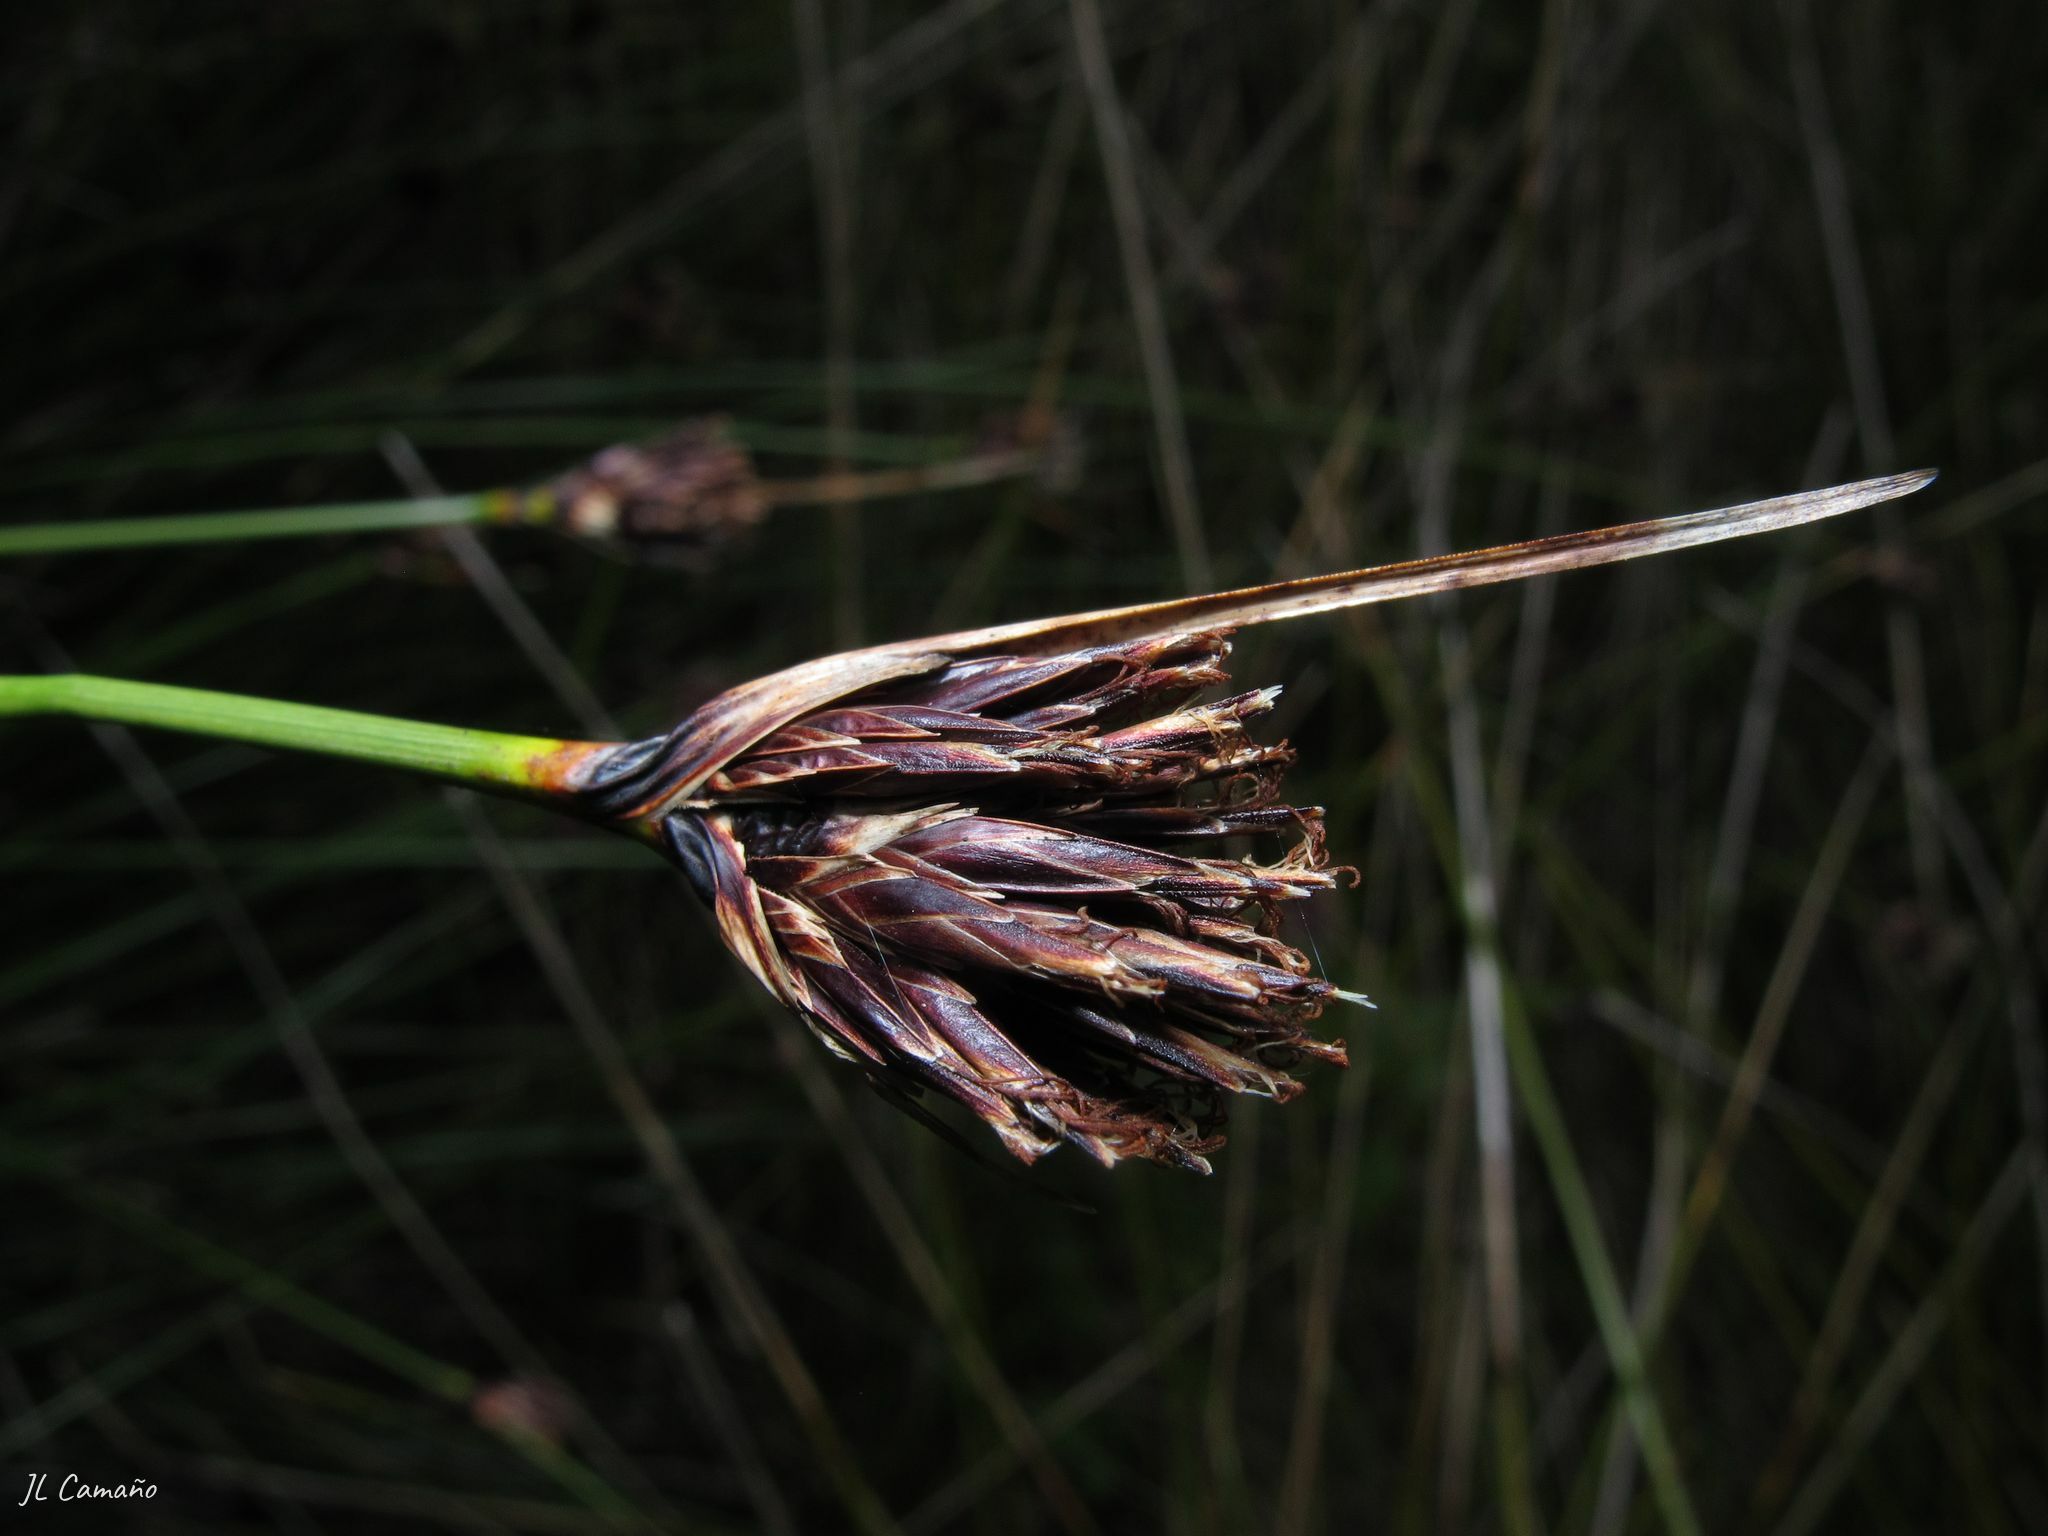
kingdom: Plantae
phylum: Tracheophyta
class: Liliopsida
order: Poales
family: Cyperaceae
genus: Schoenus
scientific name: Schoenus nigricans
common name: Black bog-rush
